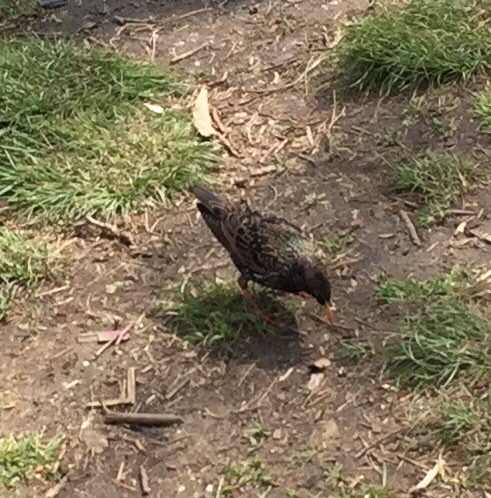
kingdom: Animalia
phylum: Chordata
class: Aves
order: Passeriformes
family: Sturnidae
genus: Sturnus
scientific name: Sturnus vulgaris
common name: Common starling
